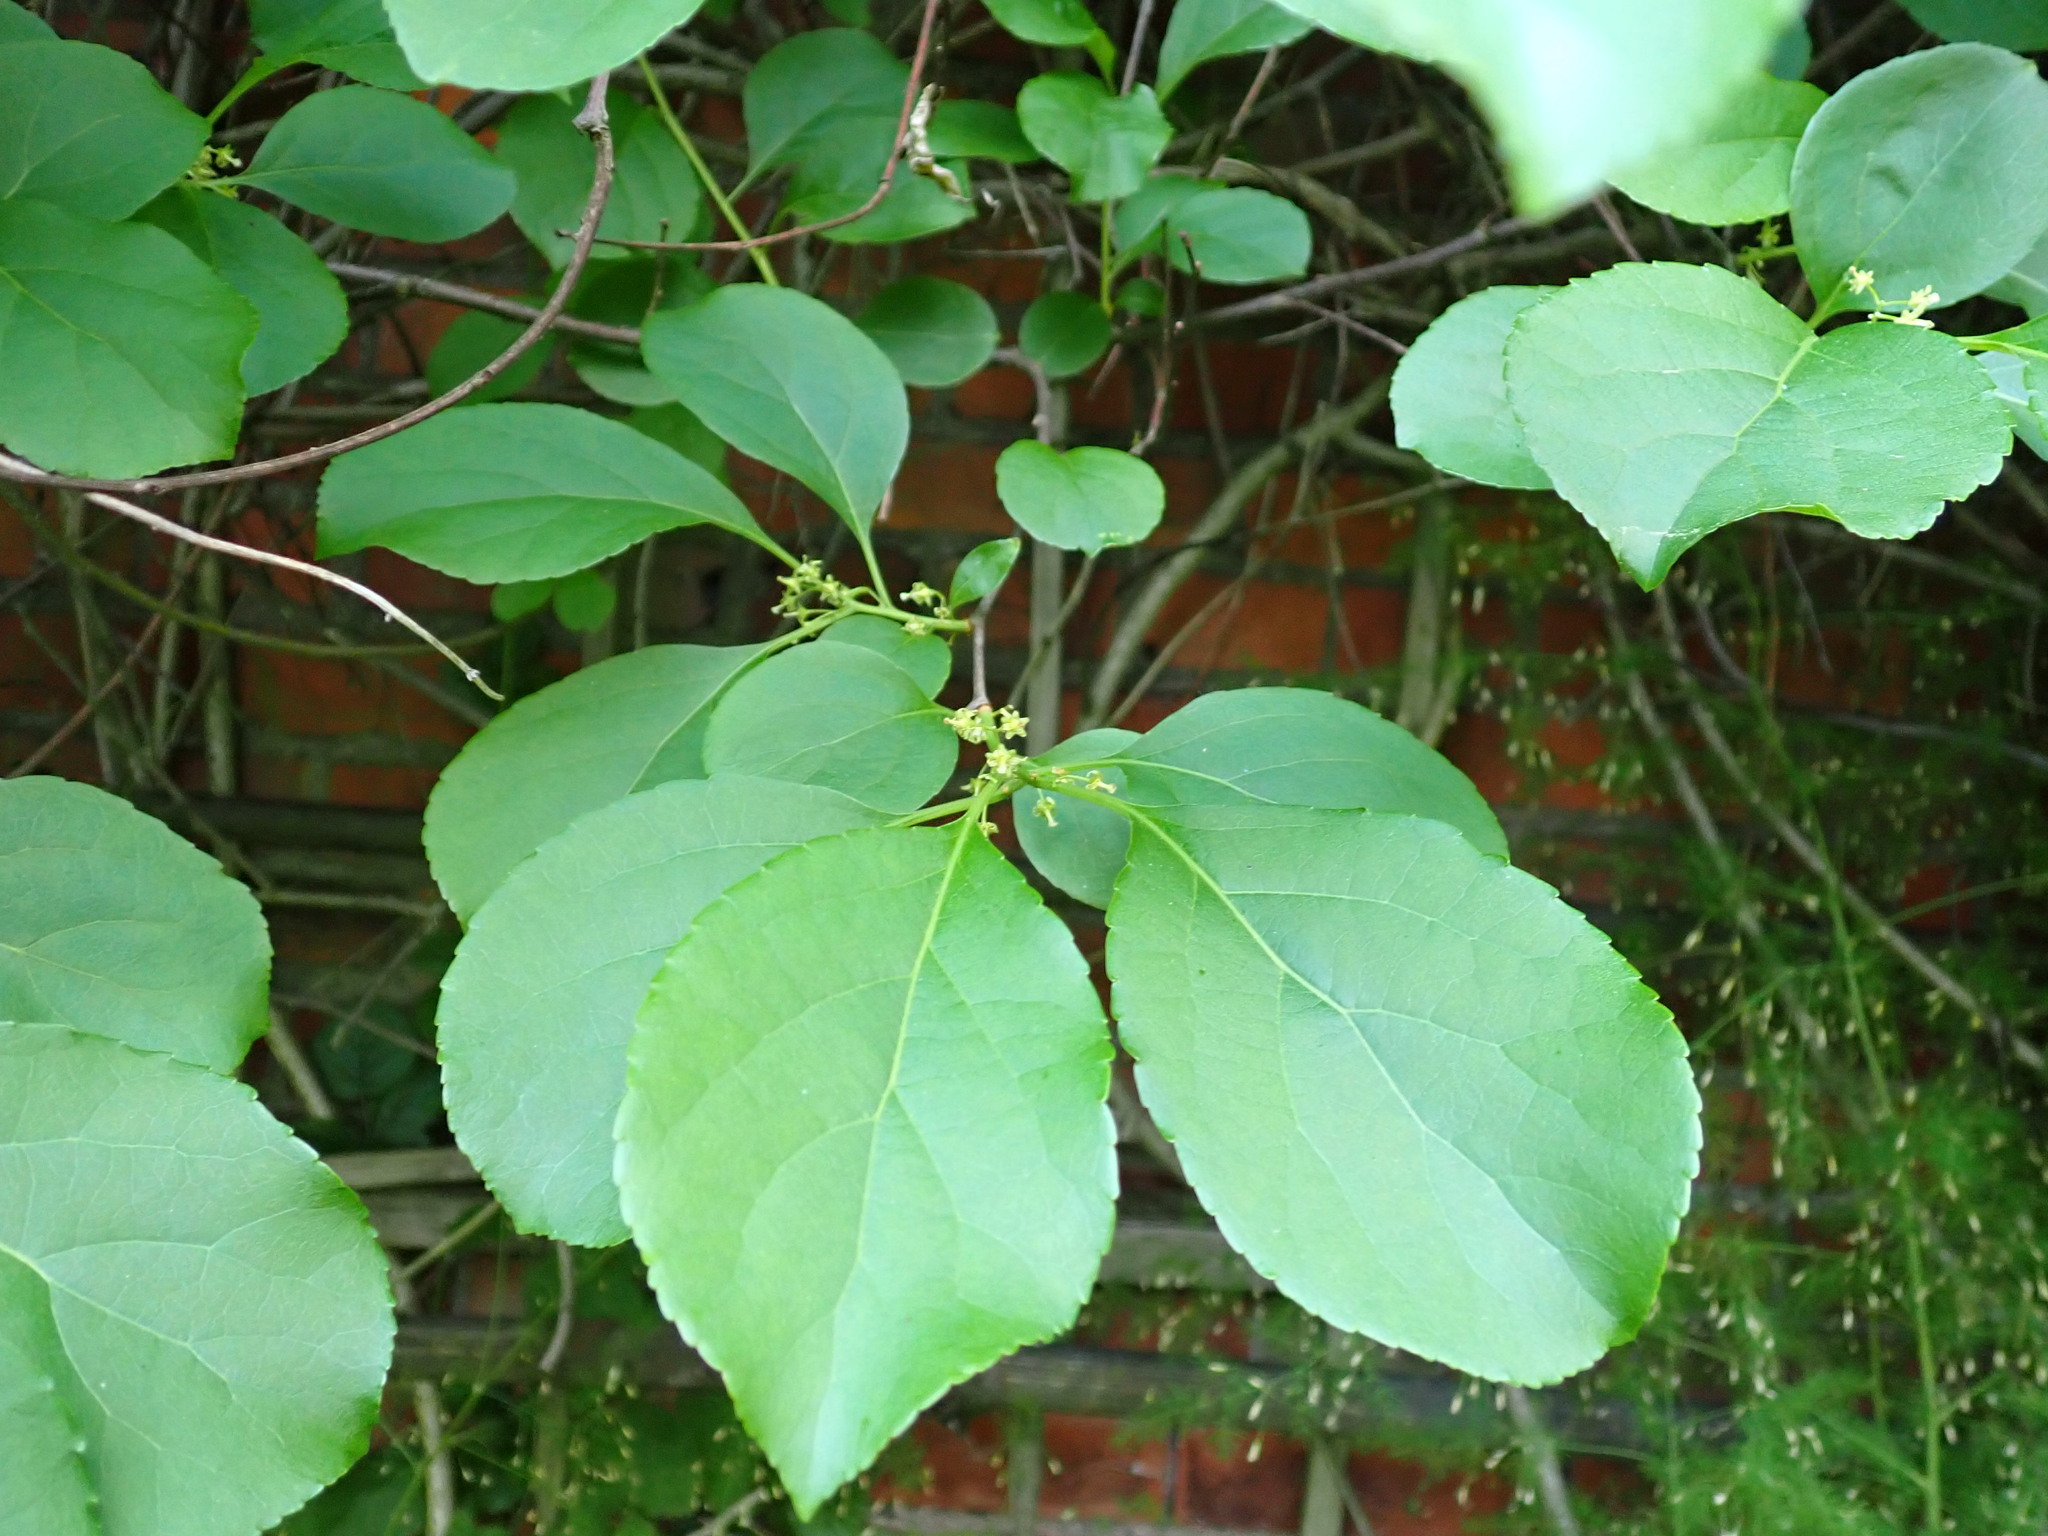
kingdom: Plantae
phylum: Tracheophyta
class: Magnoliopsida
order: Celastrales
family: Celastraceae
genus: Celastrus
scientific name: Celastrus orbiculatus
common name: Oriental bittersweet
